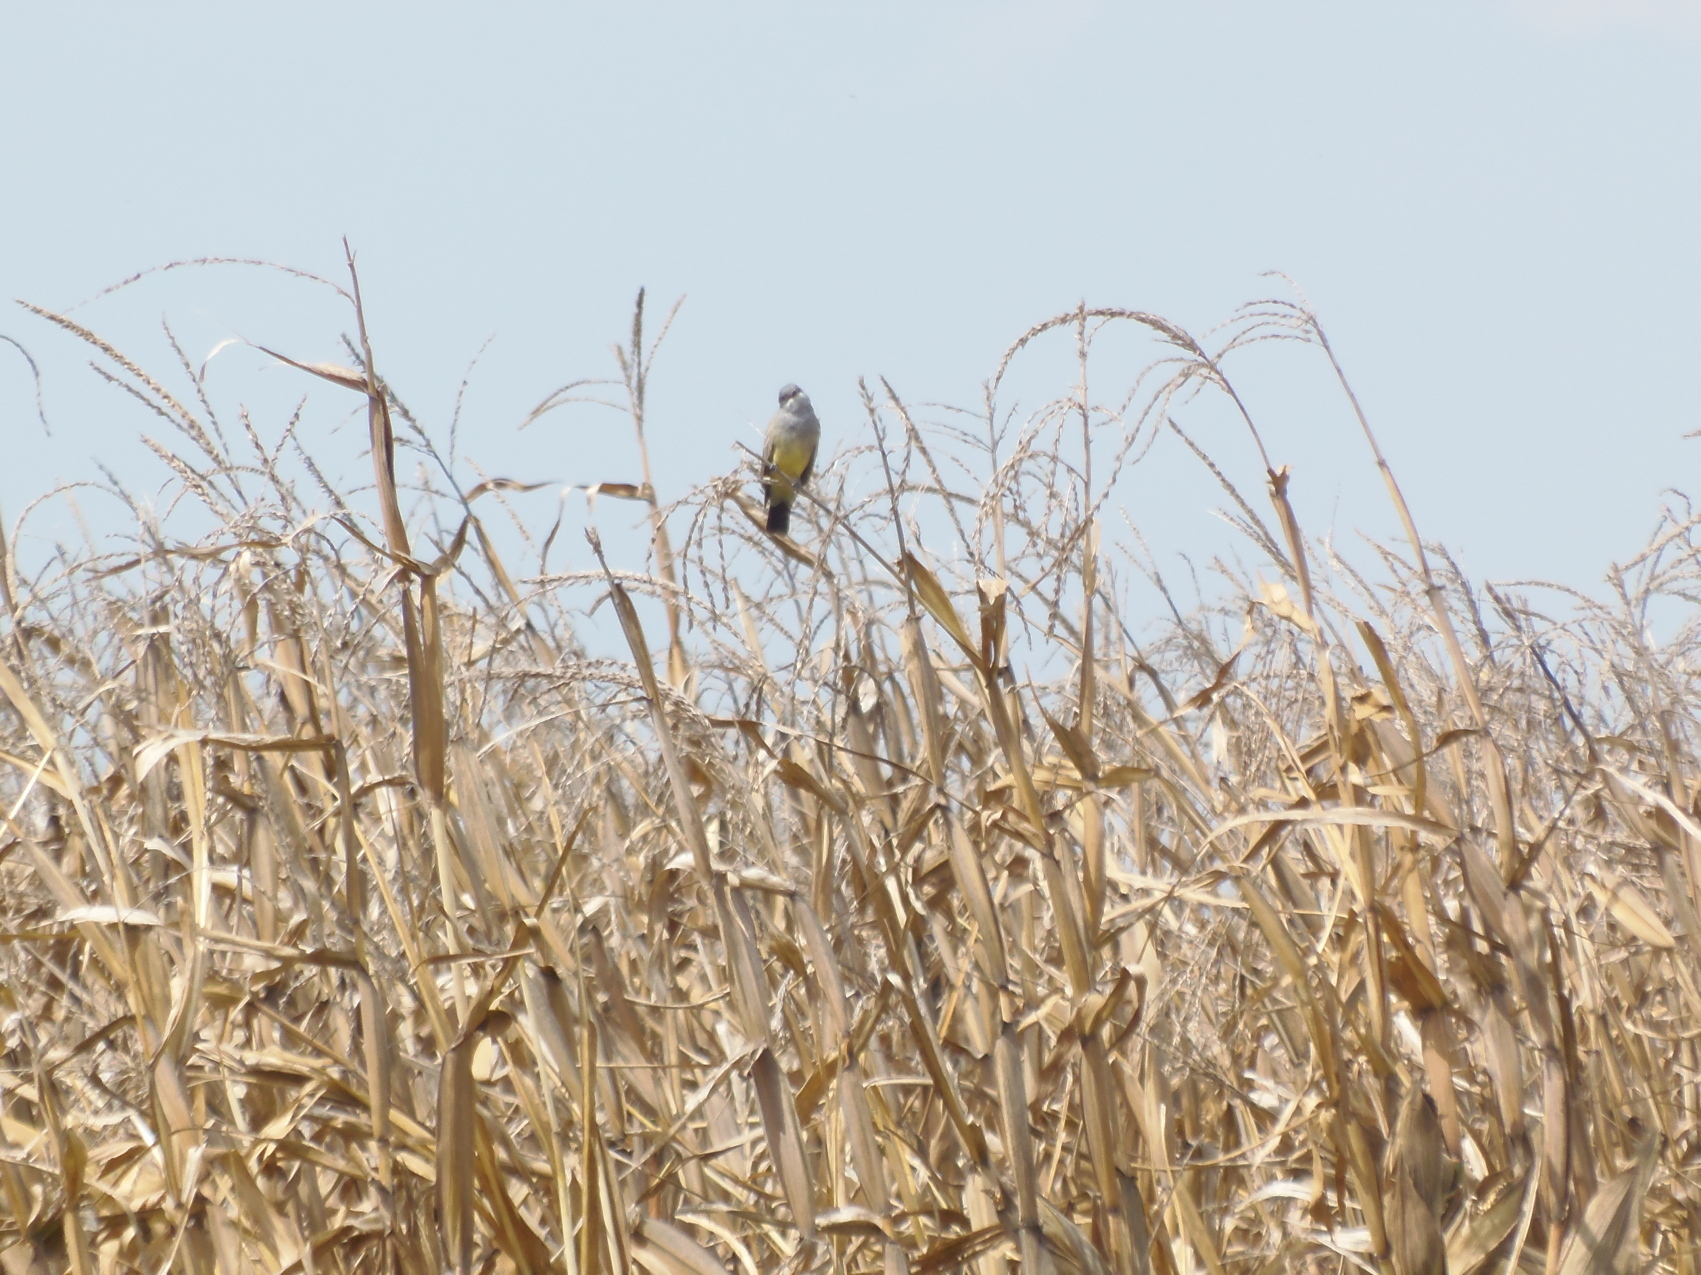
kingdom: Animalia
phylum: Chordata
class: Aves
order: Passeriformes
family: Tyrannidae
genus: Tyrannus
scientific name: Tyrannus vociferans
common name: Cassin's kingbird
